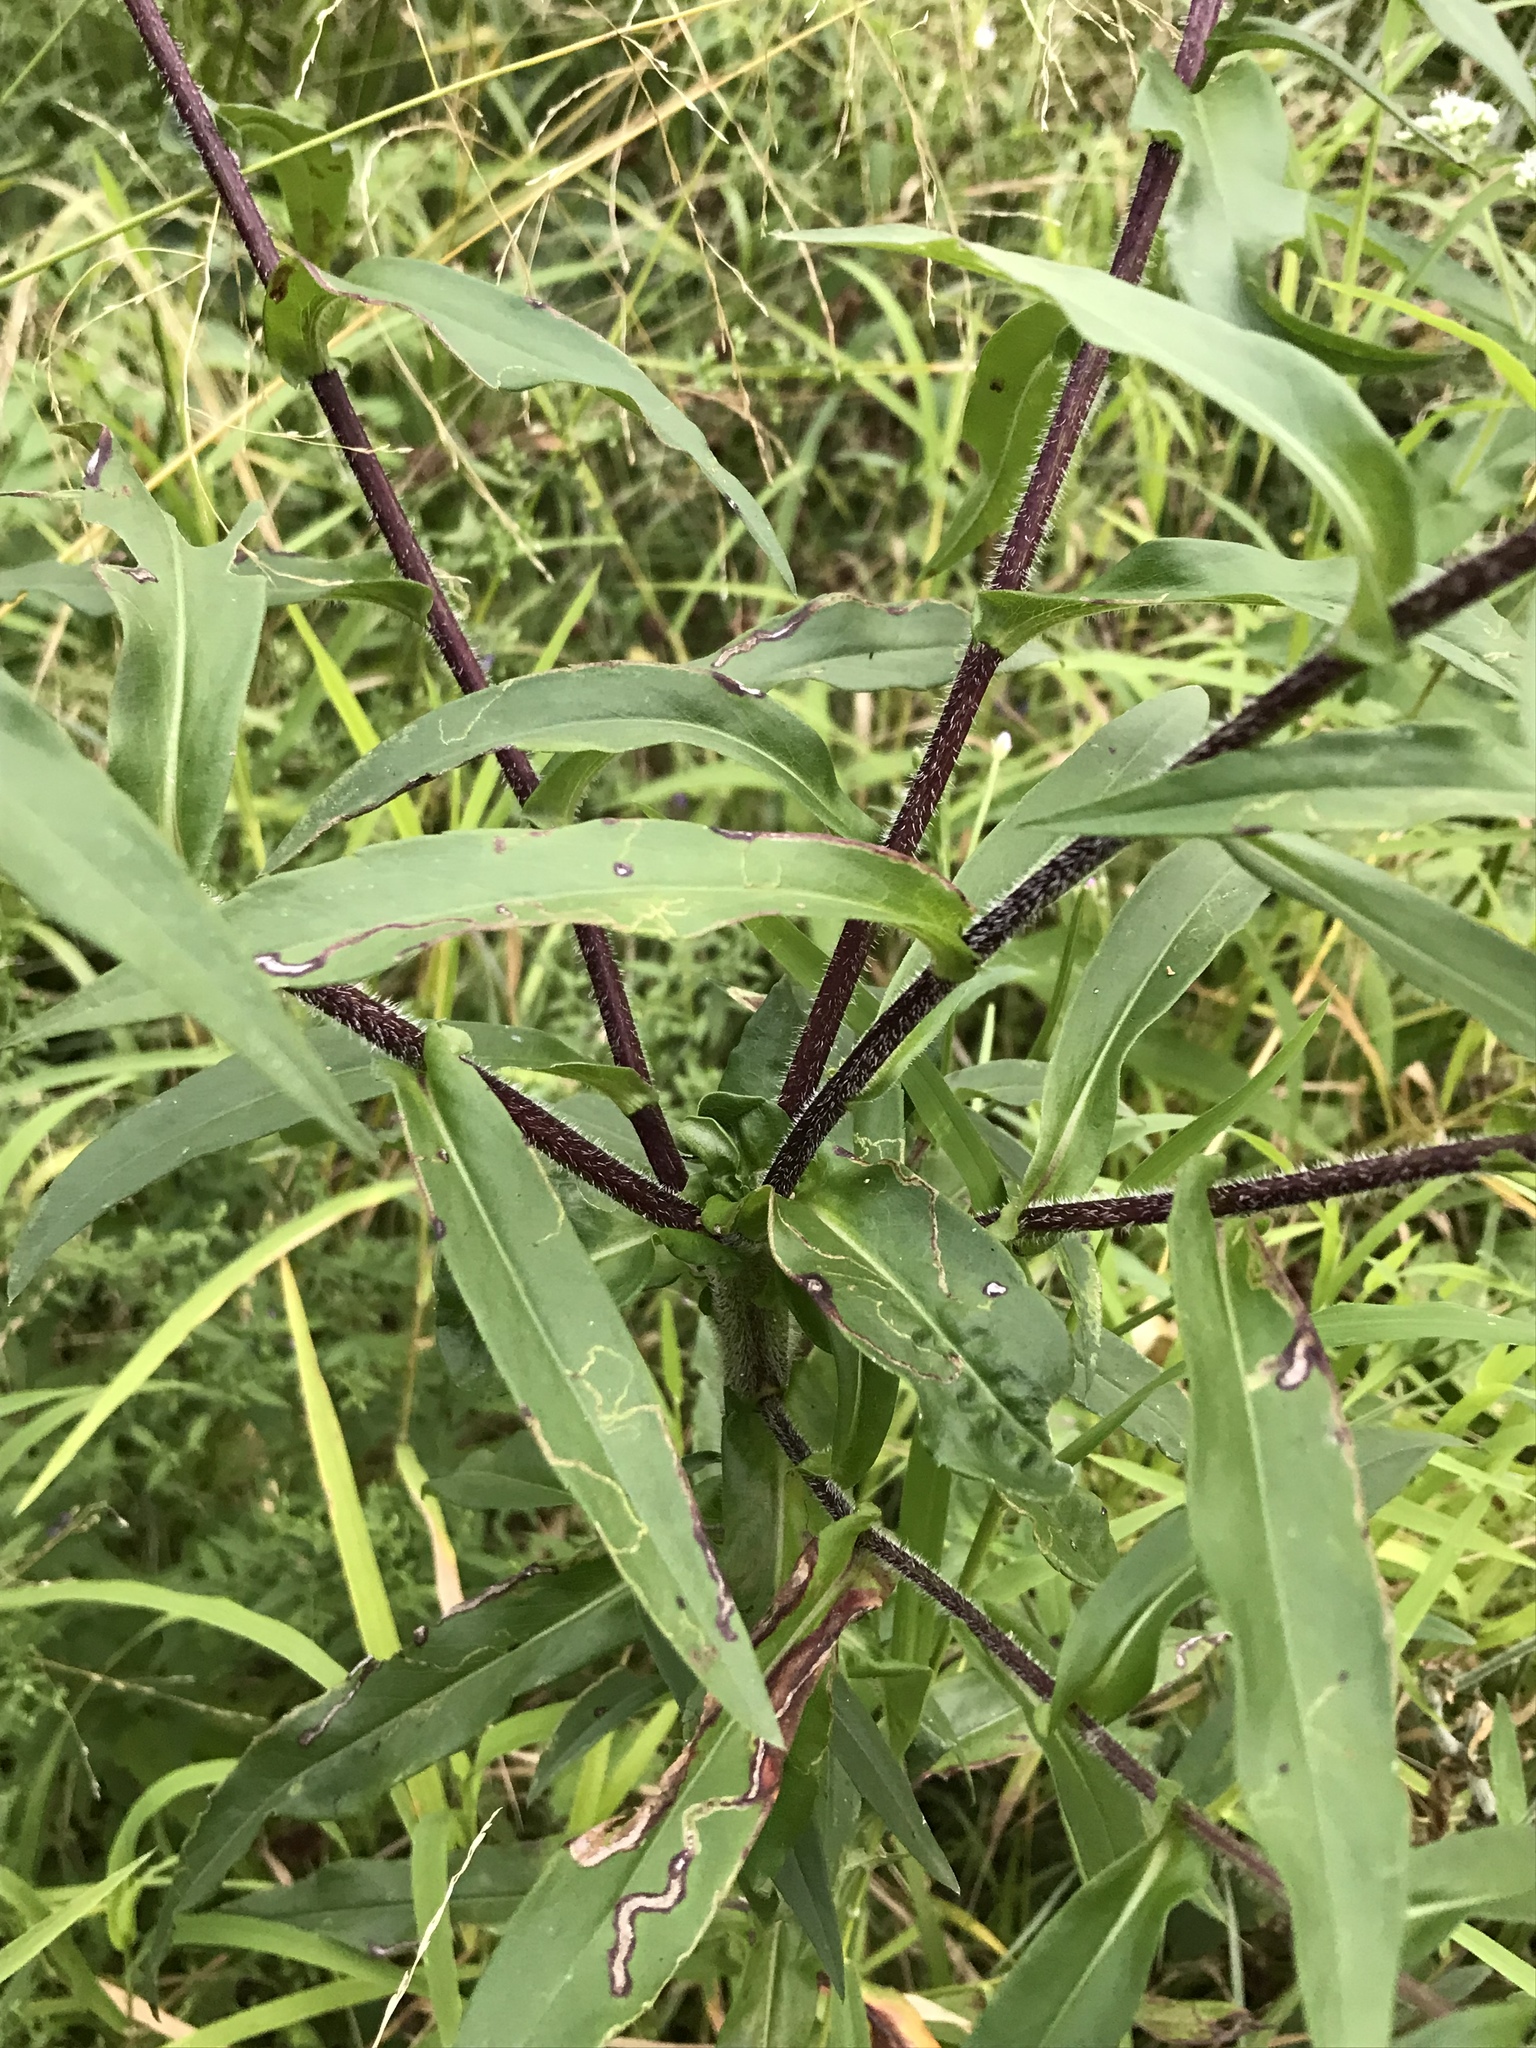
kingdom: Plantae
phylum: Tracheophyta
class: Magnoliopsida
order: Asterales
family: Asteraceae
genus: Symphyotrichum
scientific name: Symphyotrichum puniceum
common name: Bog aster
